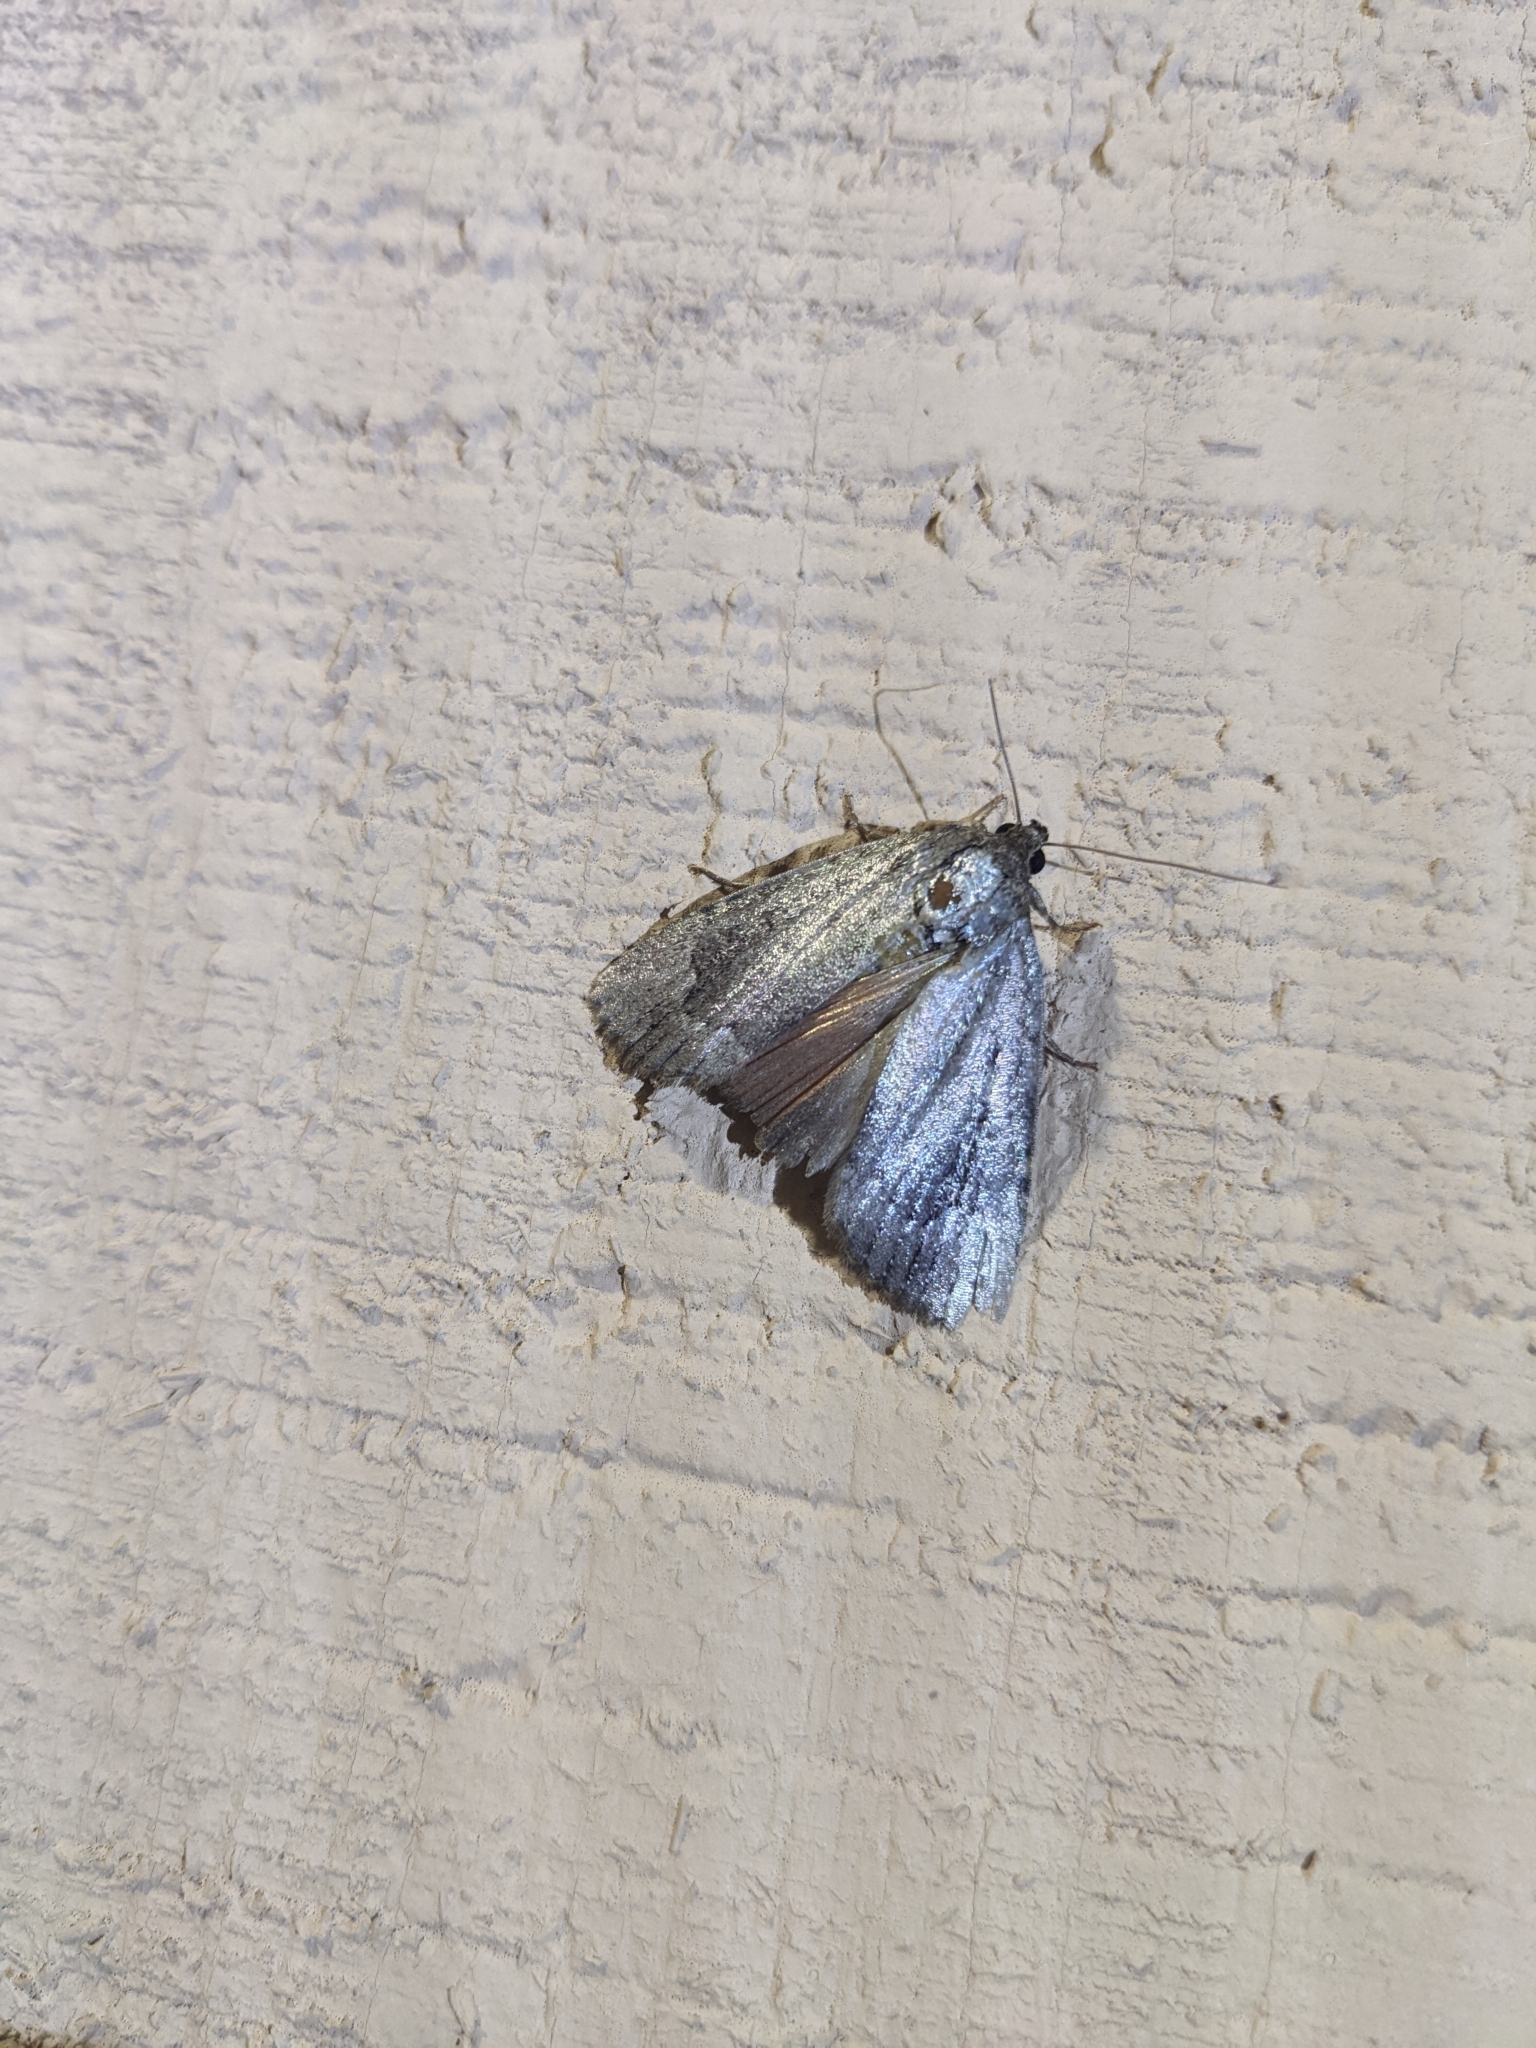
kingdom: Animalia
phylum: Arthropoda
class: Insecta
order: Lepidoptera
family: Noctuidae
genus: Amphipyra
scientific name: Amphipyra pyramidoides
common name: American copper underwing
